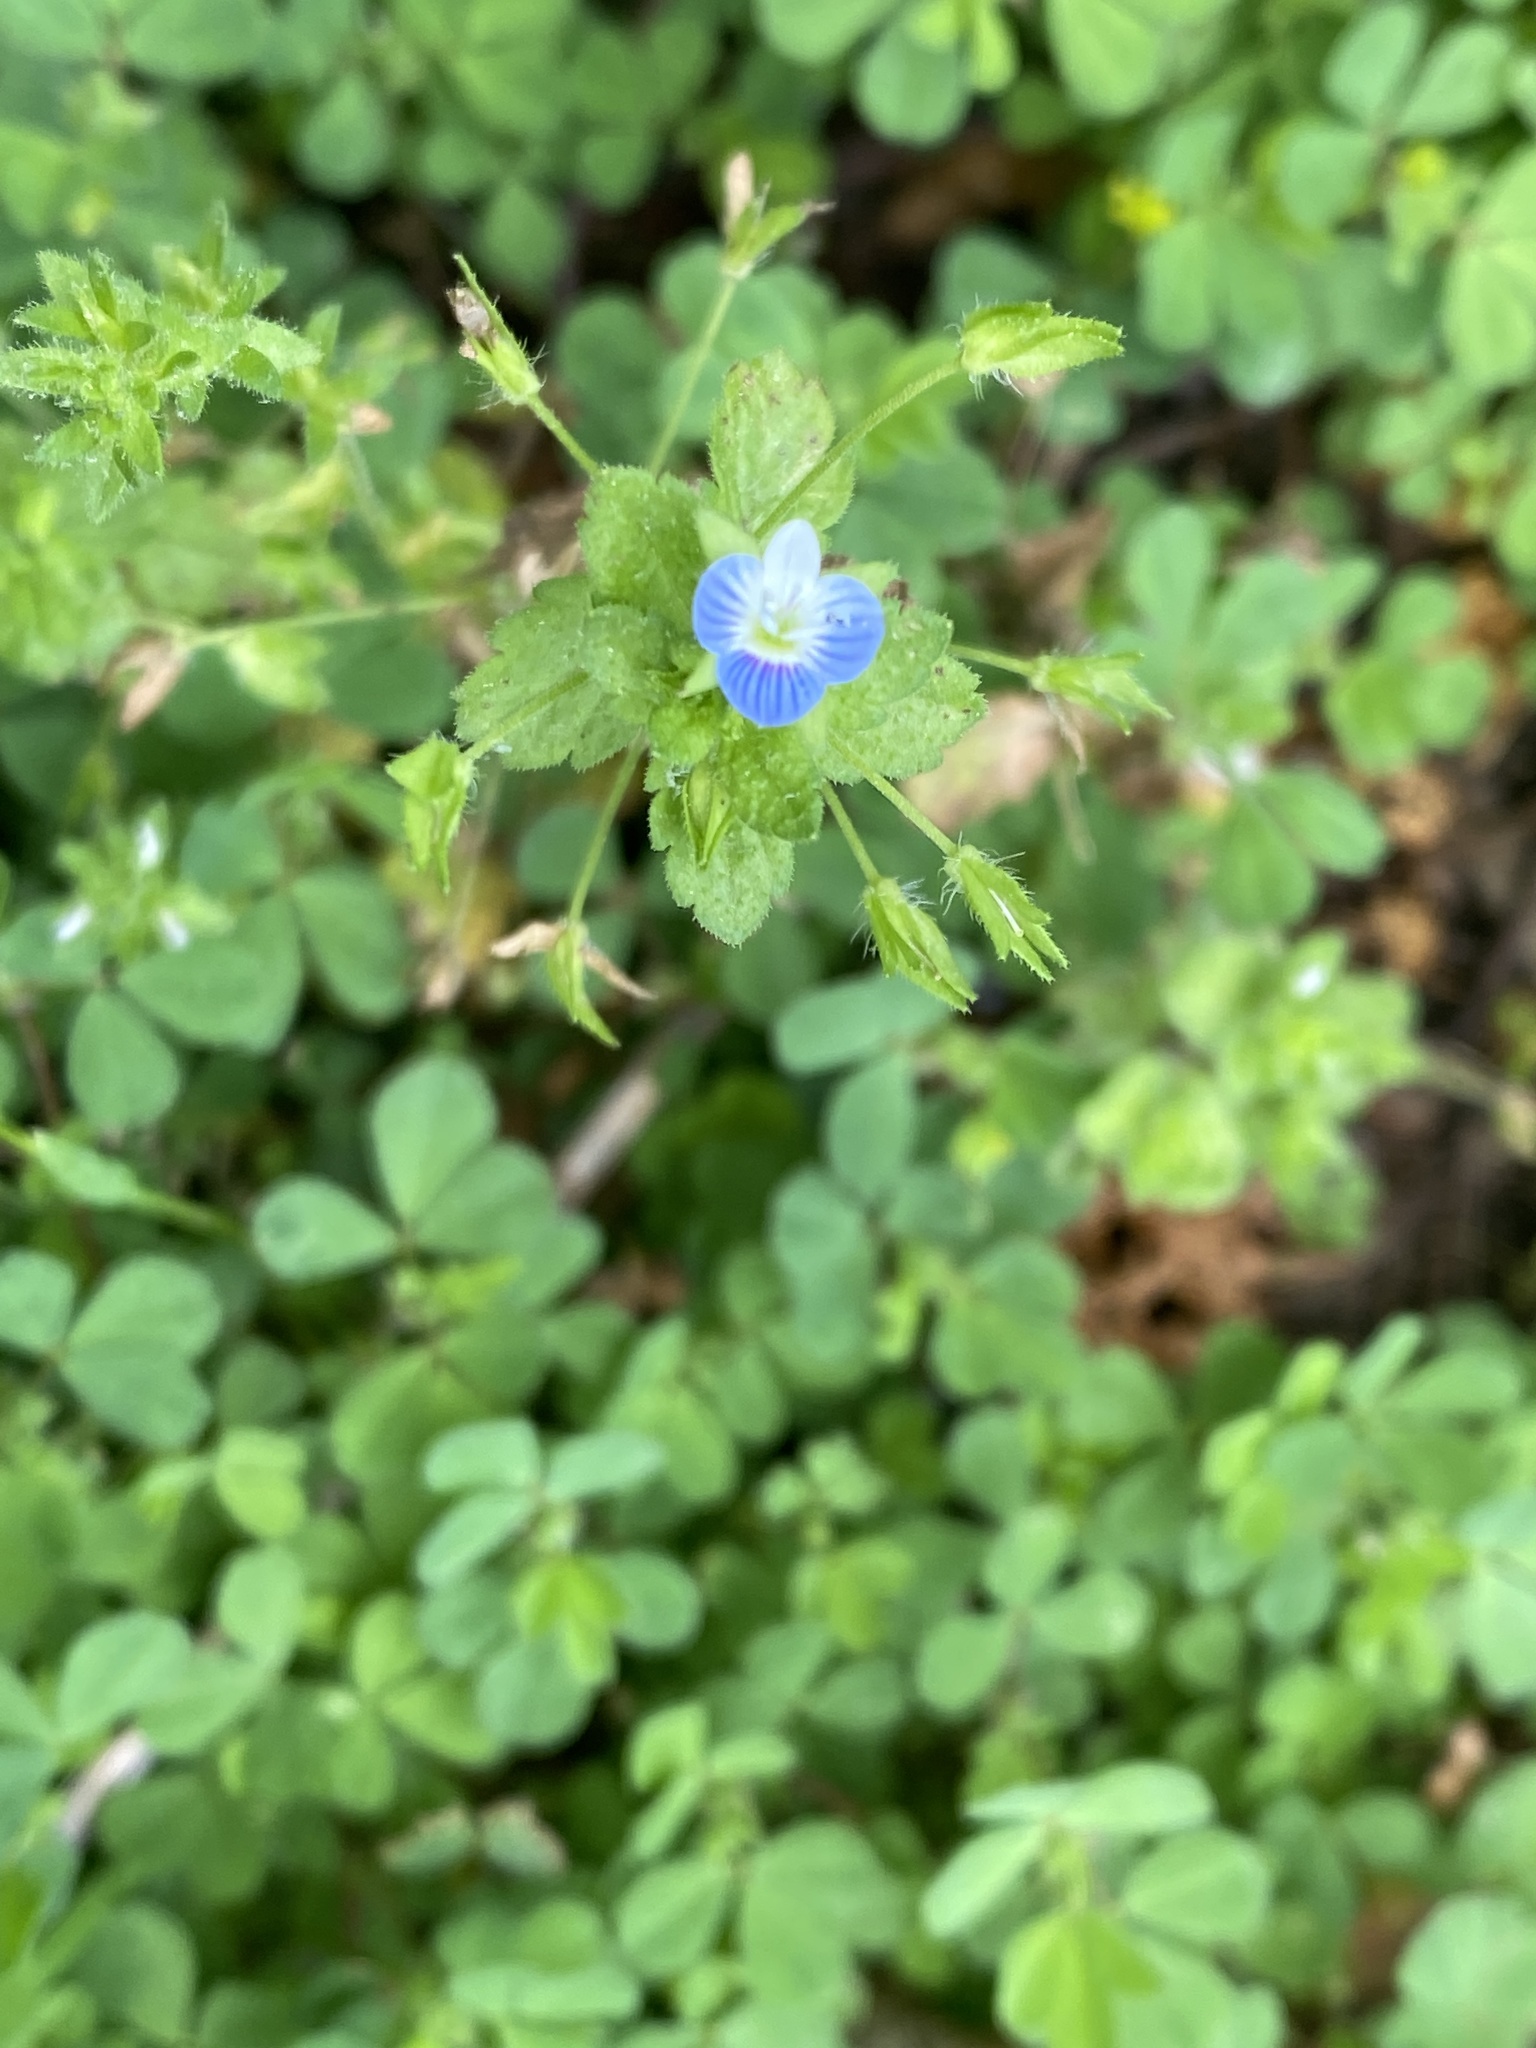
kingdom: Plantae
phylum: Tracheophyta
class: Magnoliopsida
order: Lamiales
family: Plantaginaceae
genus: Veronica
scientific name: Veronica persica
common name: Common field-speedwell
